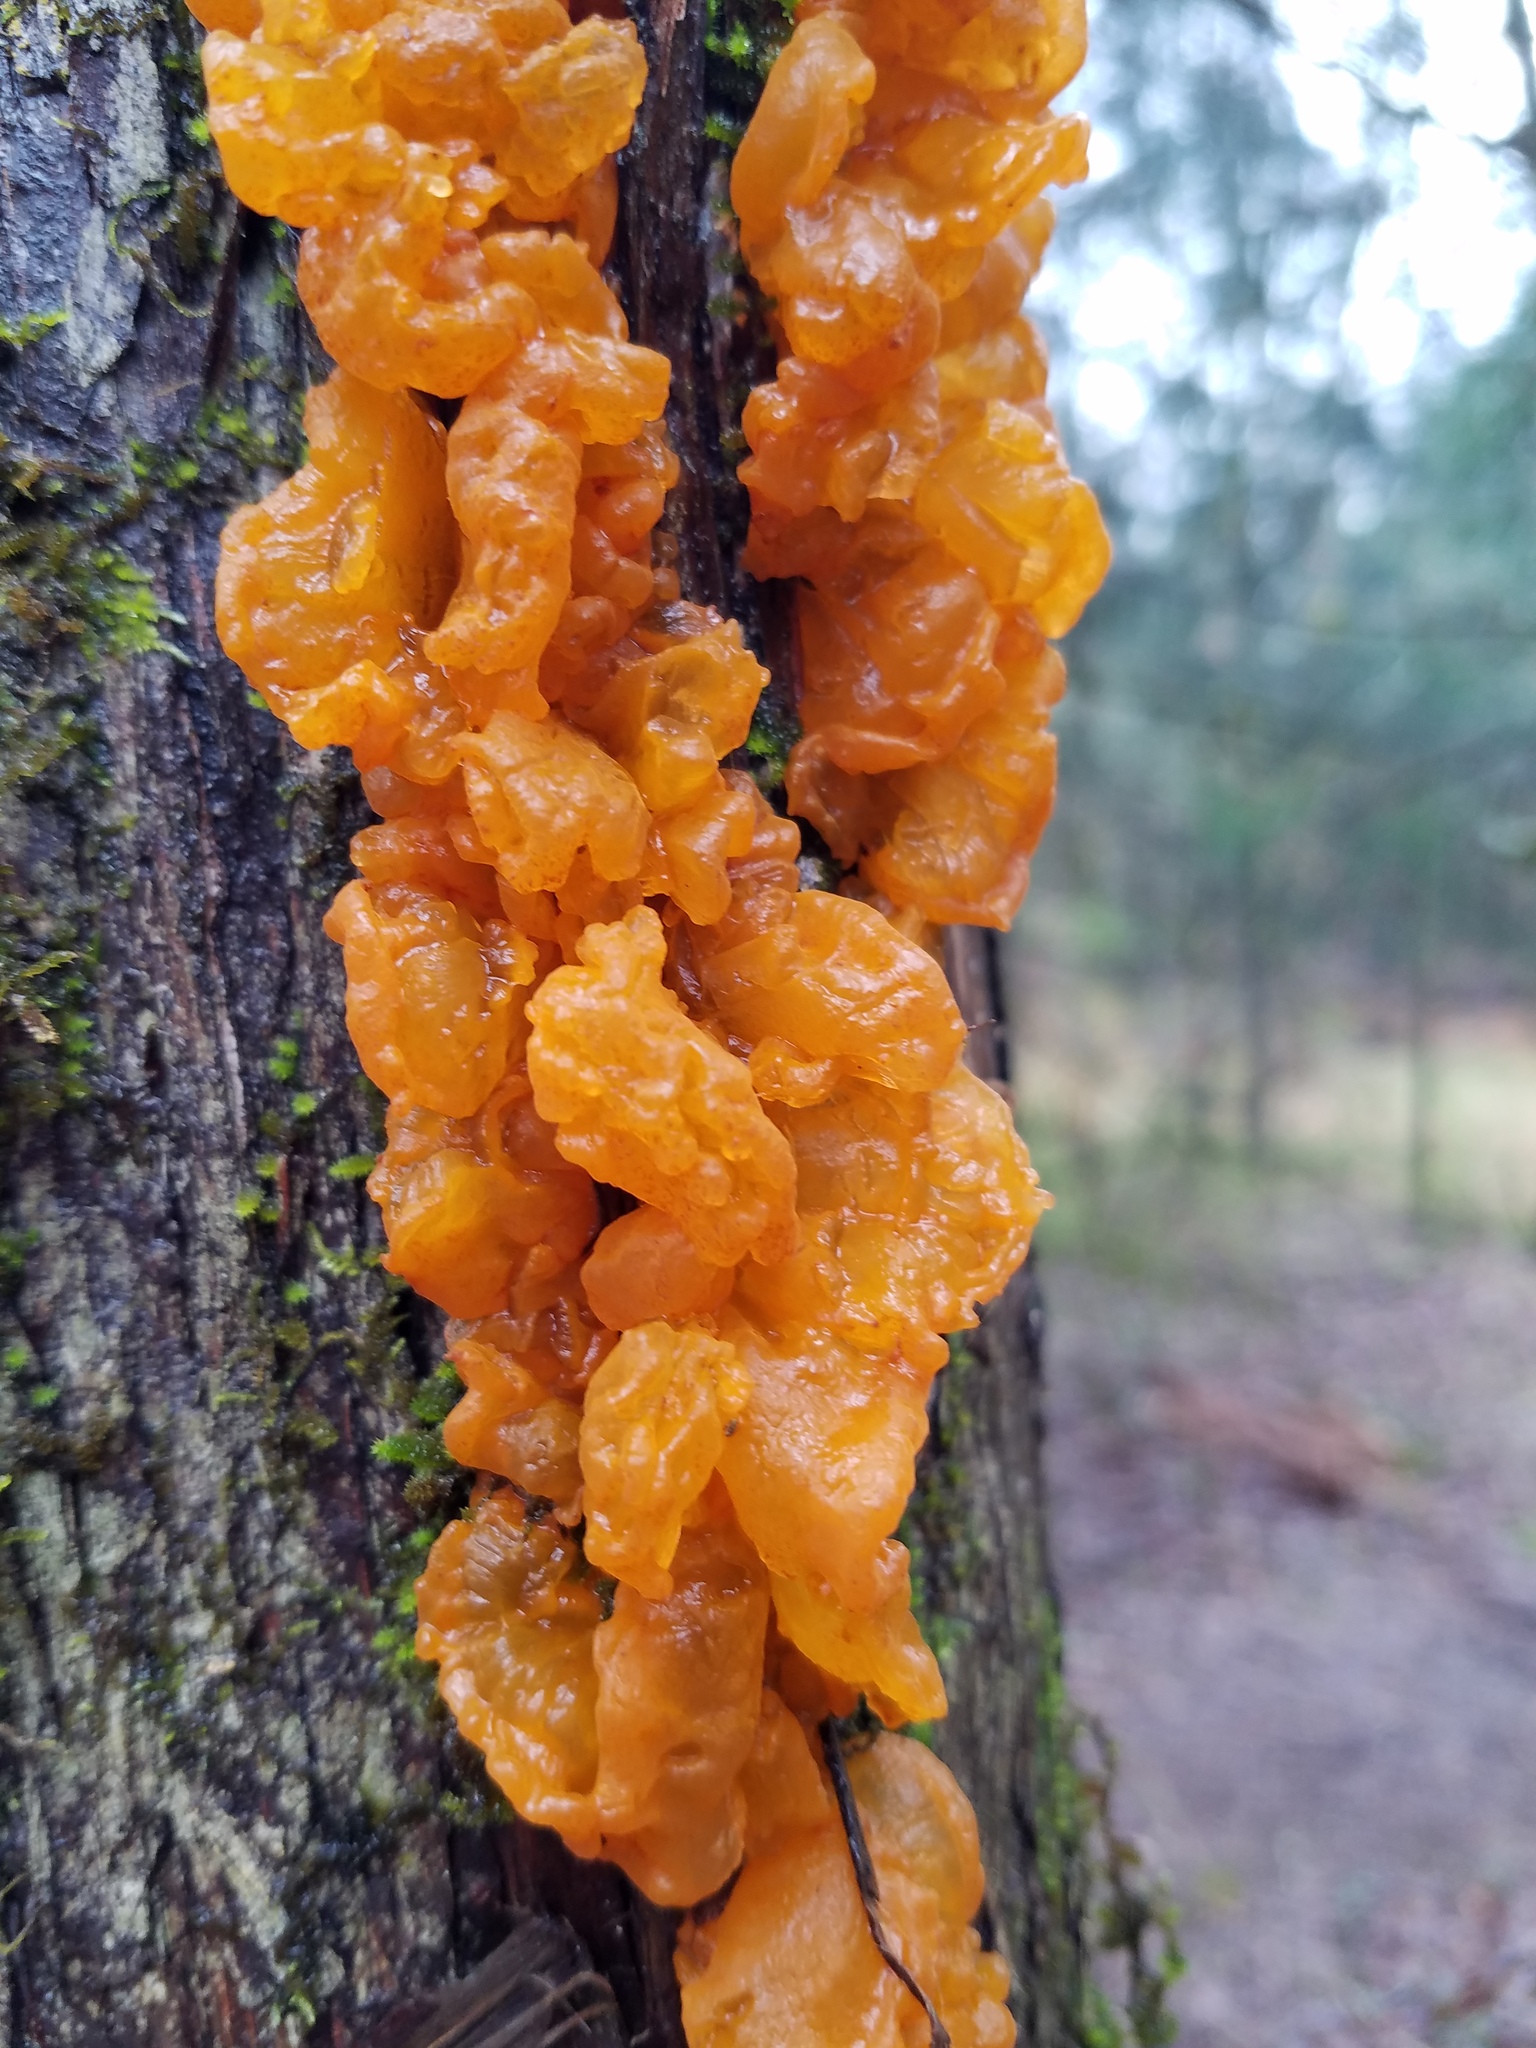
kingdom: Fungi
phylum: Basidiomycota
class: Pucciniomycetes
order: Pucciniales
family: Gymnosporangiaceae
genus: Gymnosporangium
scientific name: Gymnosporangium clavipes
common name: Quince rust
